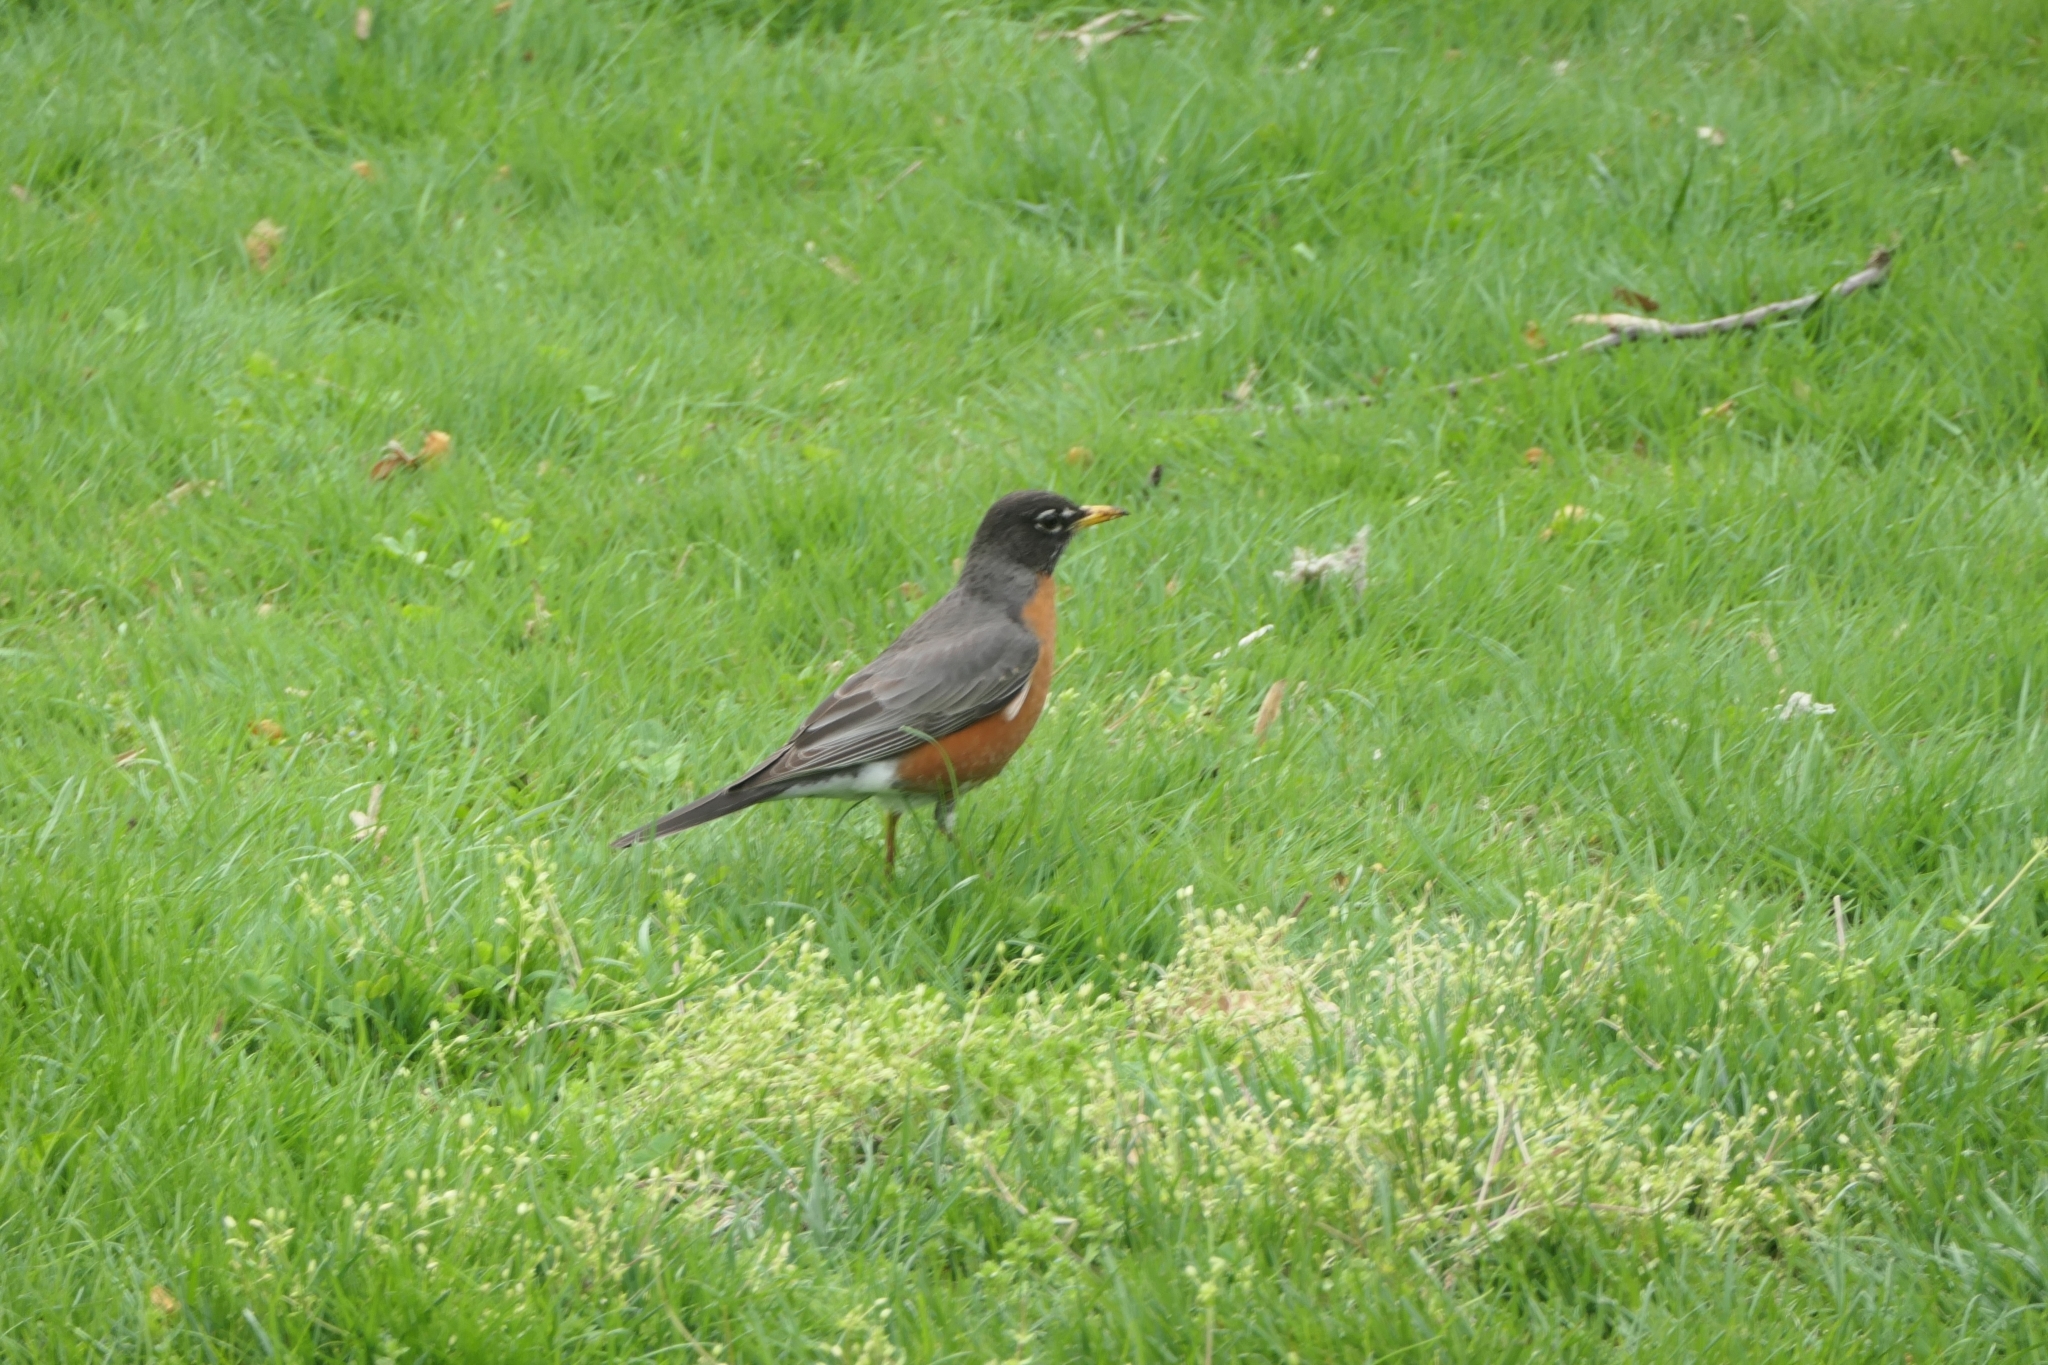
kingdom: Animalia
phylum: Chordata
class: Aves
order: Passeriformes
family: Turdidae
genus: Turdus
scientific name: Turdus migratorius
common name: American robin
